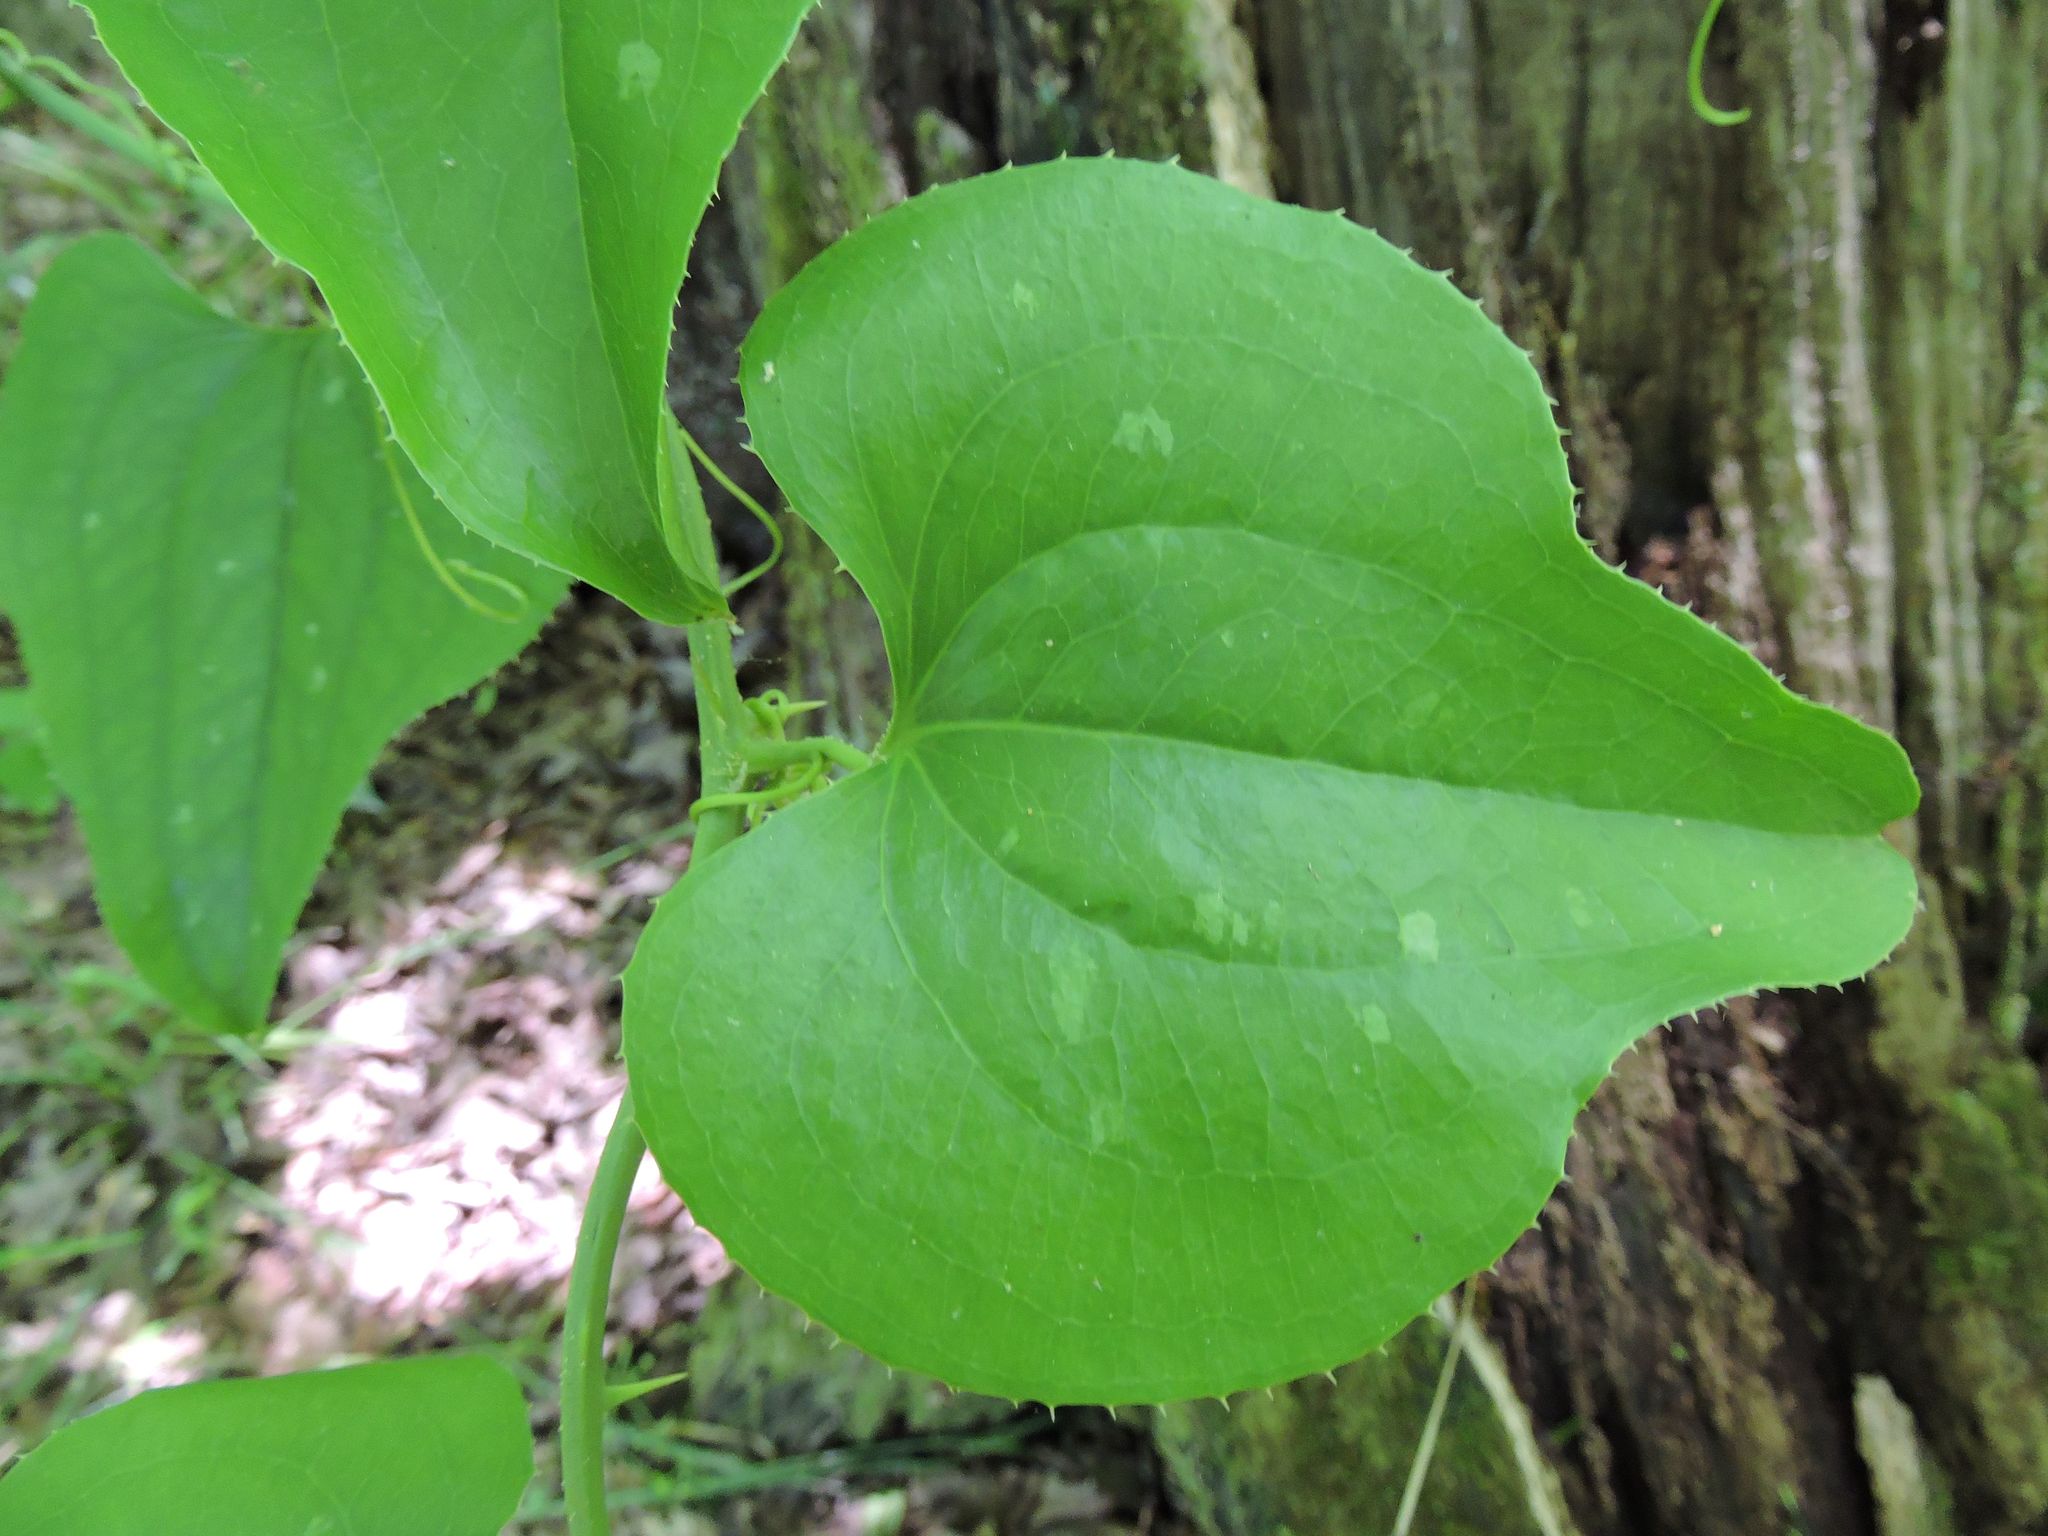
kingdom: Plantae
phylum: Tracheophyta
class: Liliopsida
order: Liliales
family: Smilacaceae
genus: Smilax
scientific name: Smilax bona-nox
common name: Catbrier
